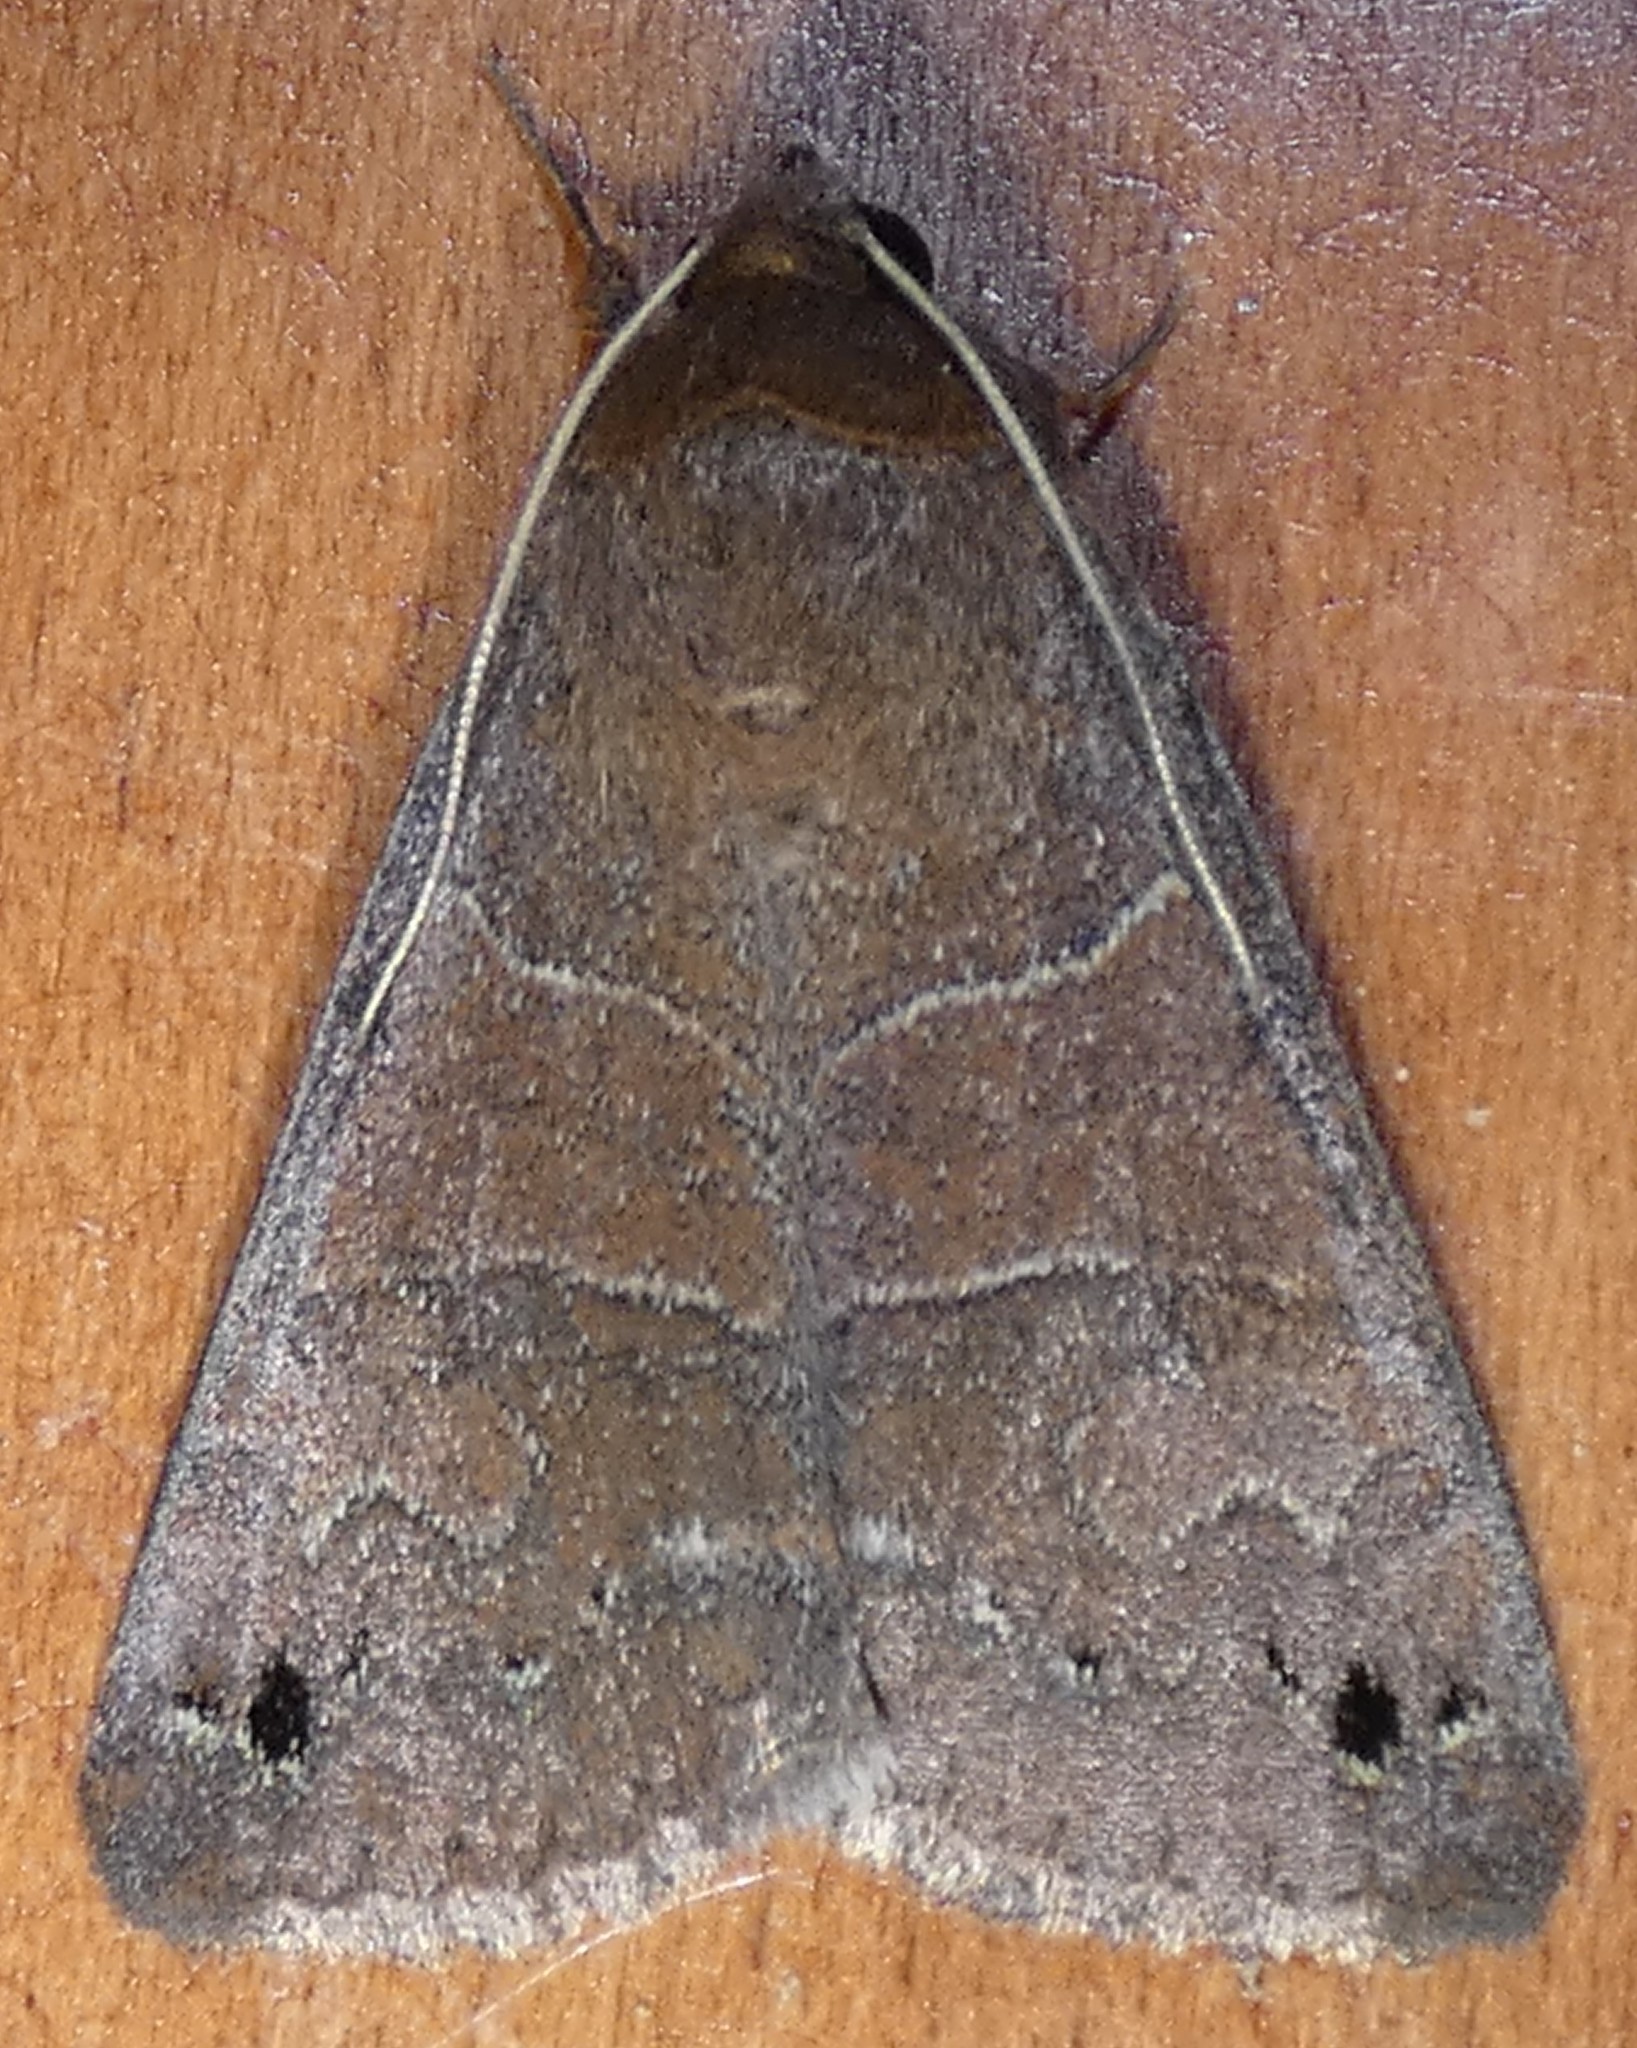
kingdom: Animalia
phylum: Arthropoda
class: Insecta
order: Lepidoptera
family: Erebidae
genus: Cissusa
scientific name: Cissusa spadix
